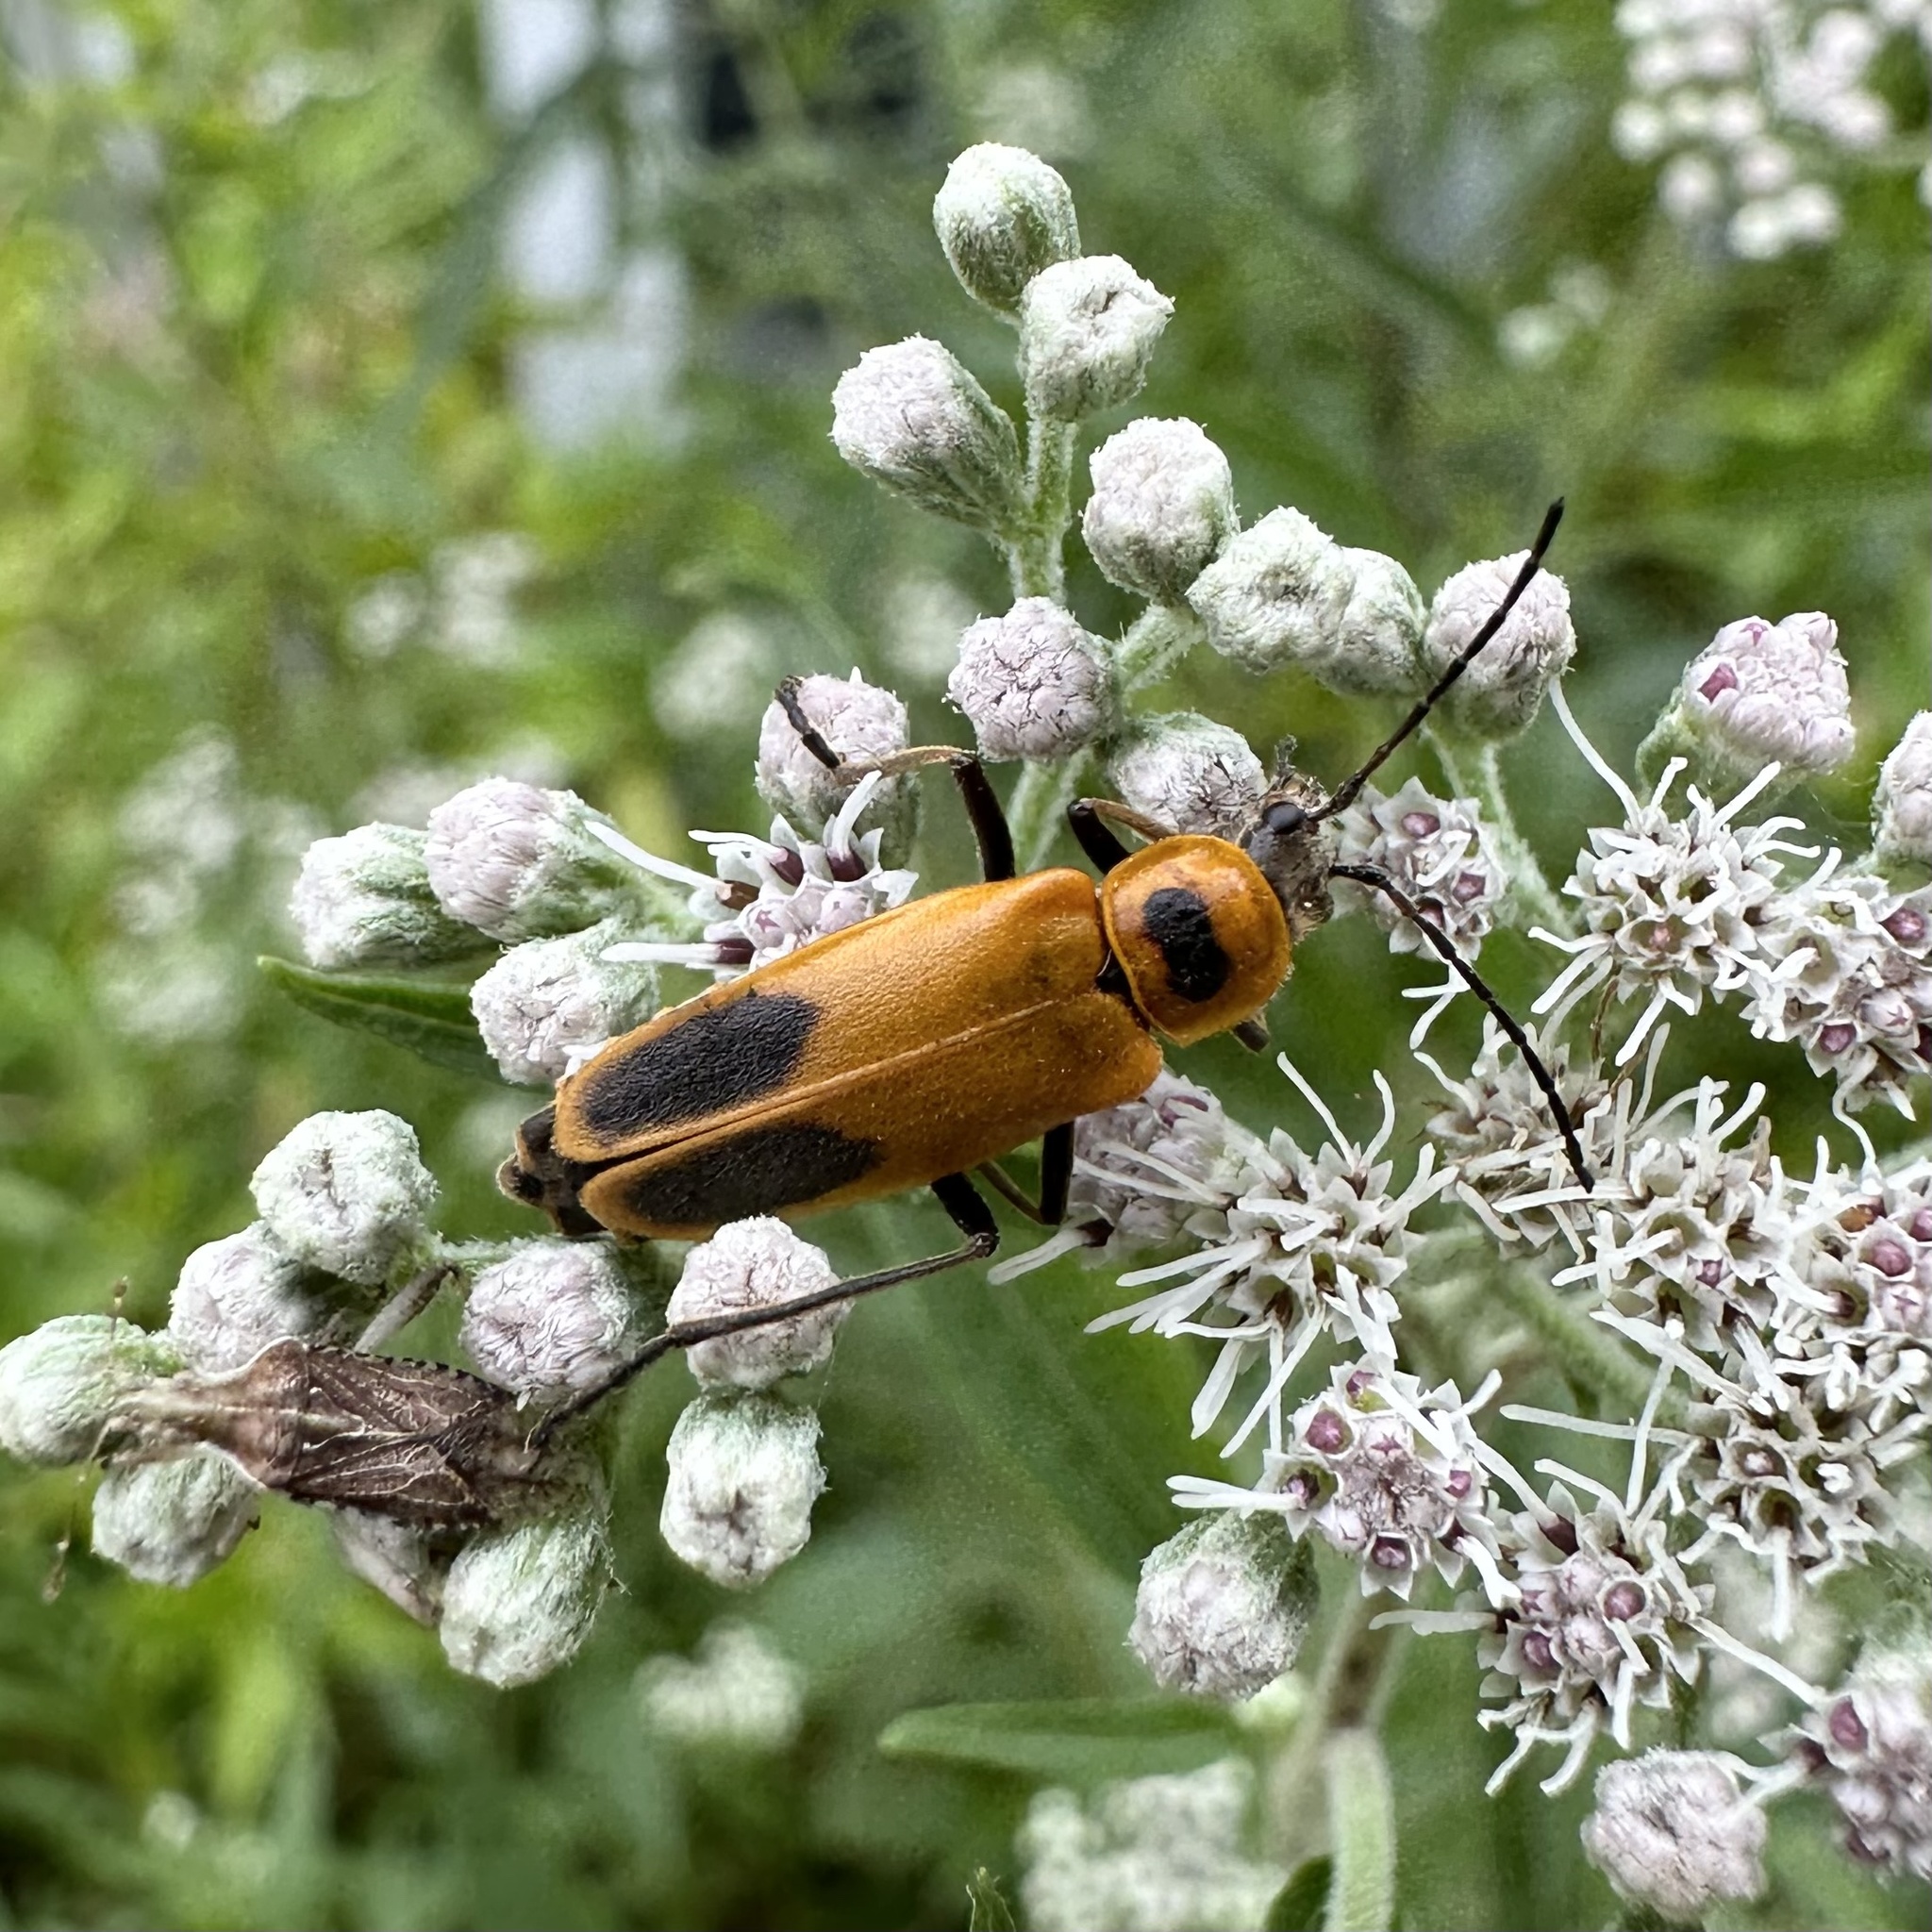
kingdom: Animalia
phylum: Arthropoda
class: Insecta
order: Coleoptera
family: Cantharidae
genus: Chauliognathus
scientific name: Chauliognathus pensylvanicus
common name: Goldenrod soldier beetle
